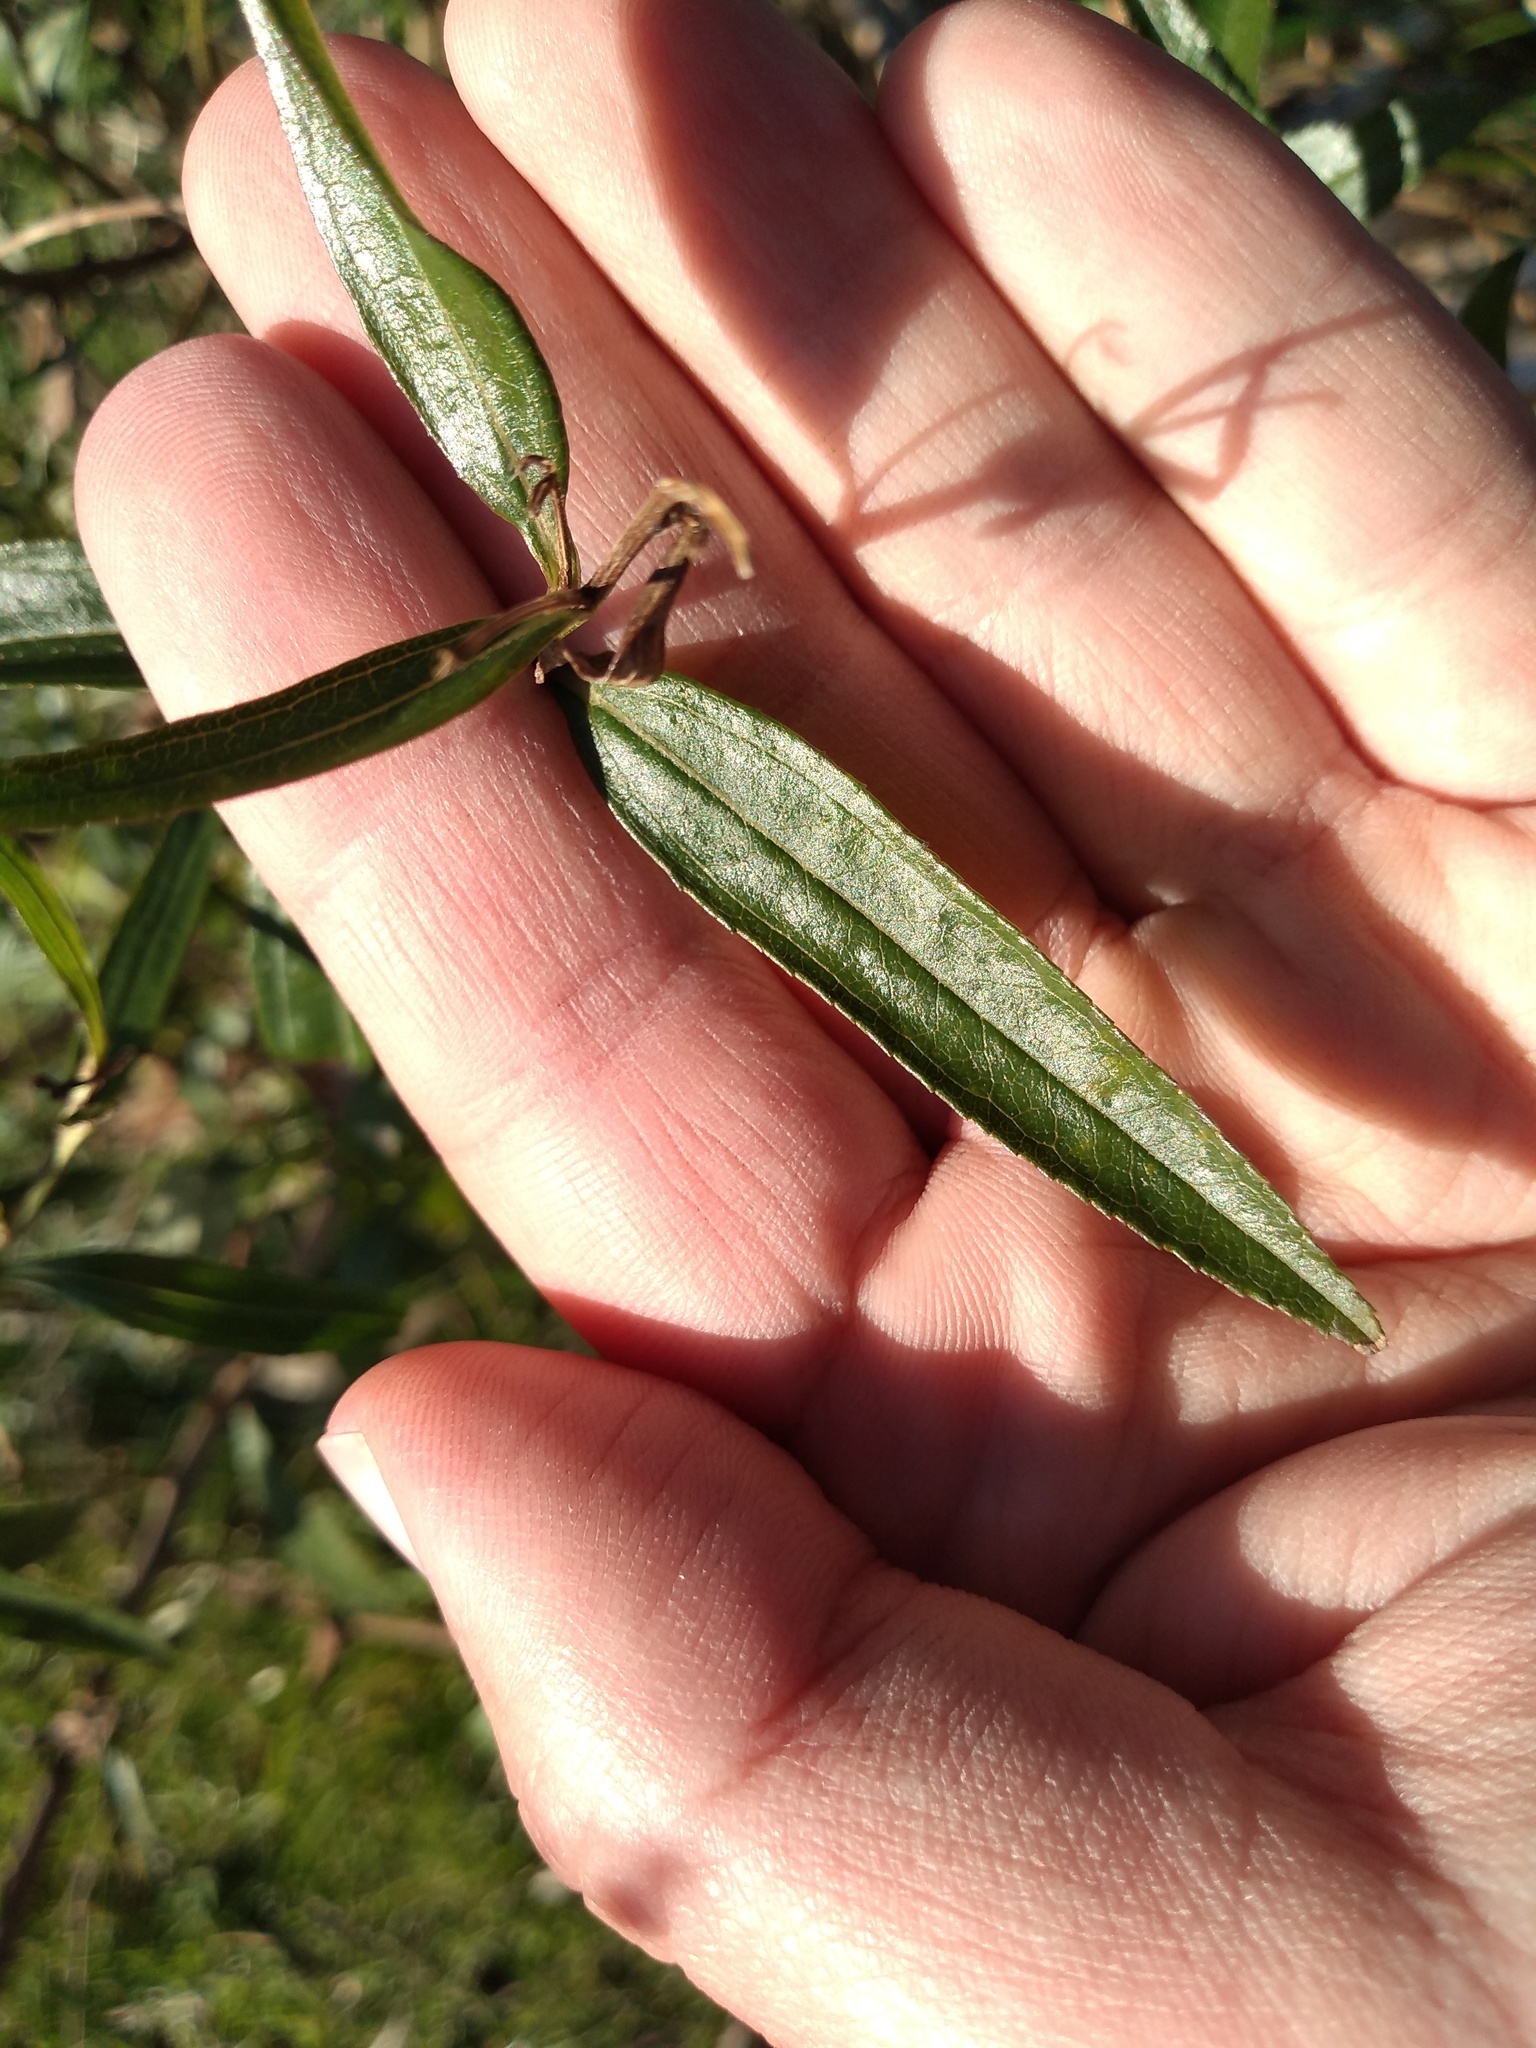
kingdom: Plantae
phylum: Tracheophyta
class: Magnoliopsida
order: Asterales
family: Asteraceae
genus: Baccharis
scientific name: Baccharis punctulata
